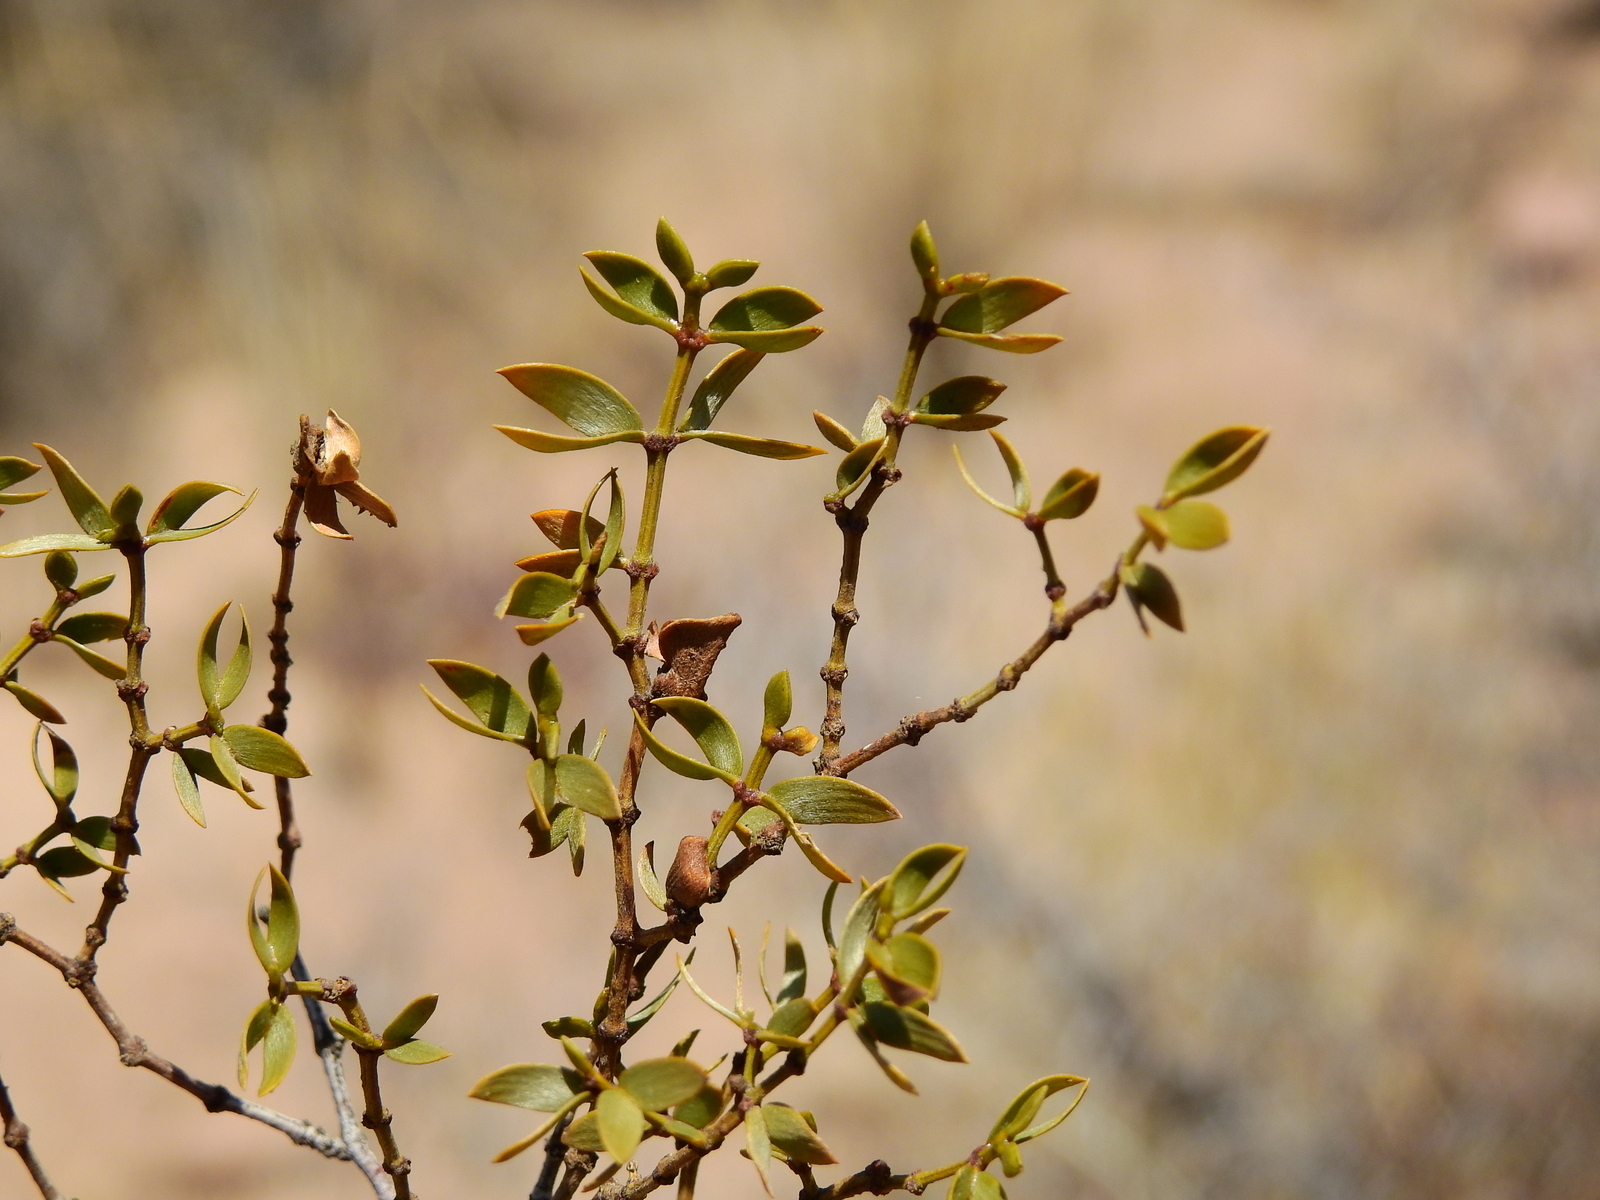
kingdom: Plantae
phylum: Tracheophyta
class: Magnoliopsida
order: Zygophyllales
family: Zygophyllaceae
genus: Larrea
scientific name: Larrea divaricata
